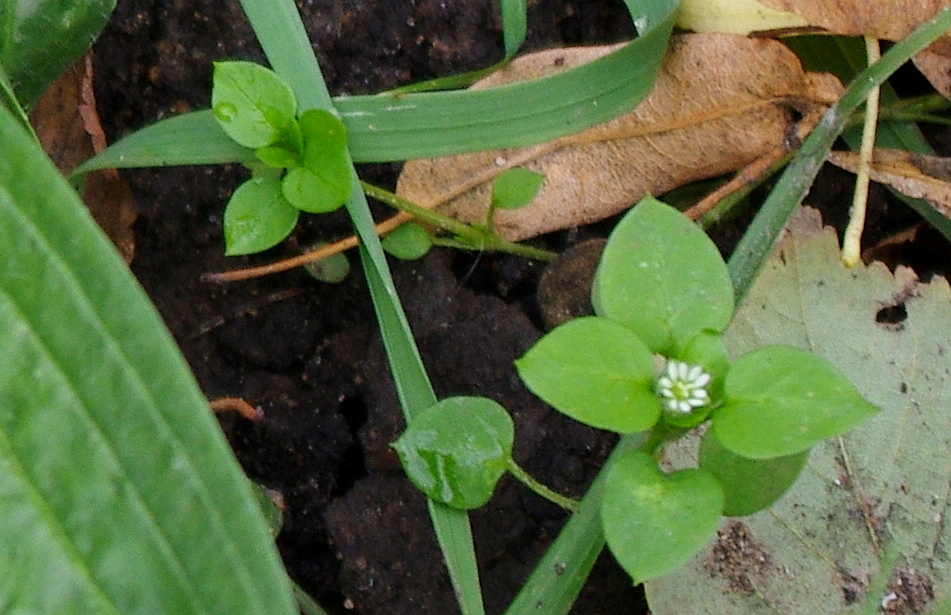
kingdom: Plantae
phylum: Tracheophyta
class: Magnoliopsida
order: Caryophyllales
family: Caryophyllaceae
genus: Stellaria
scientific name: Stellaria media
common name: Common chickweed
